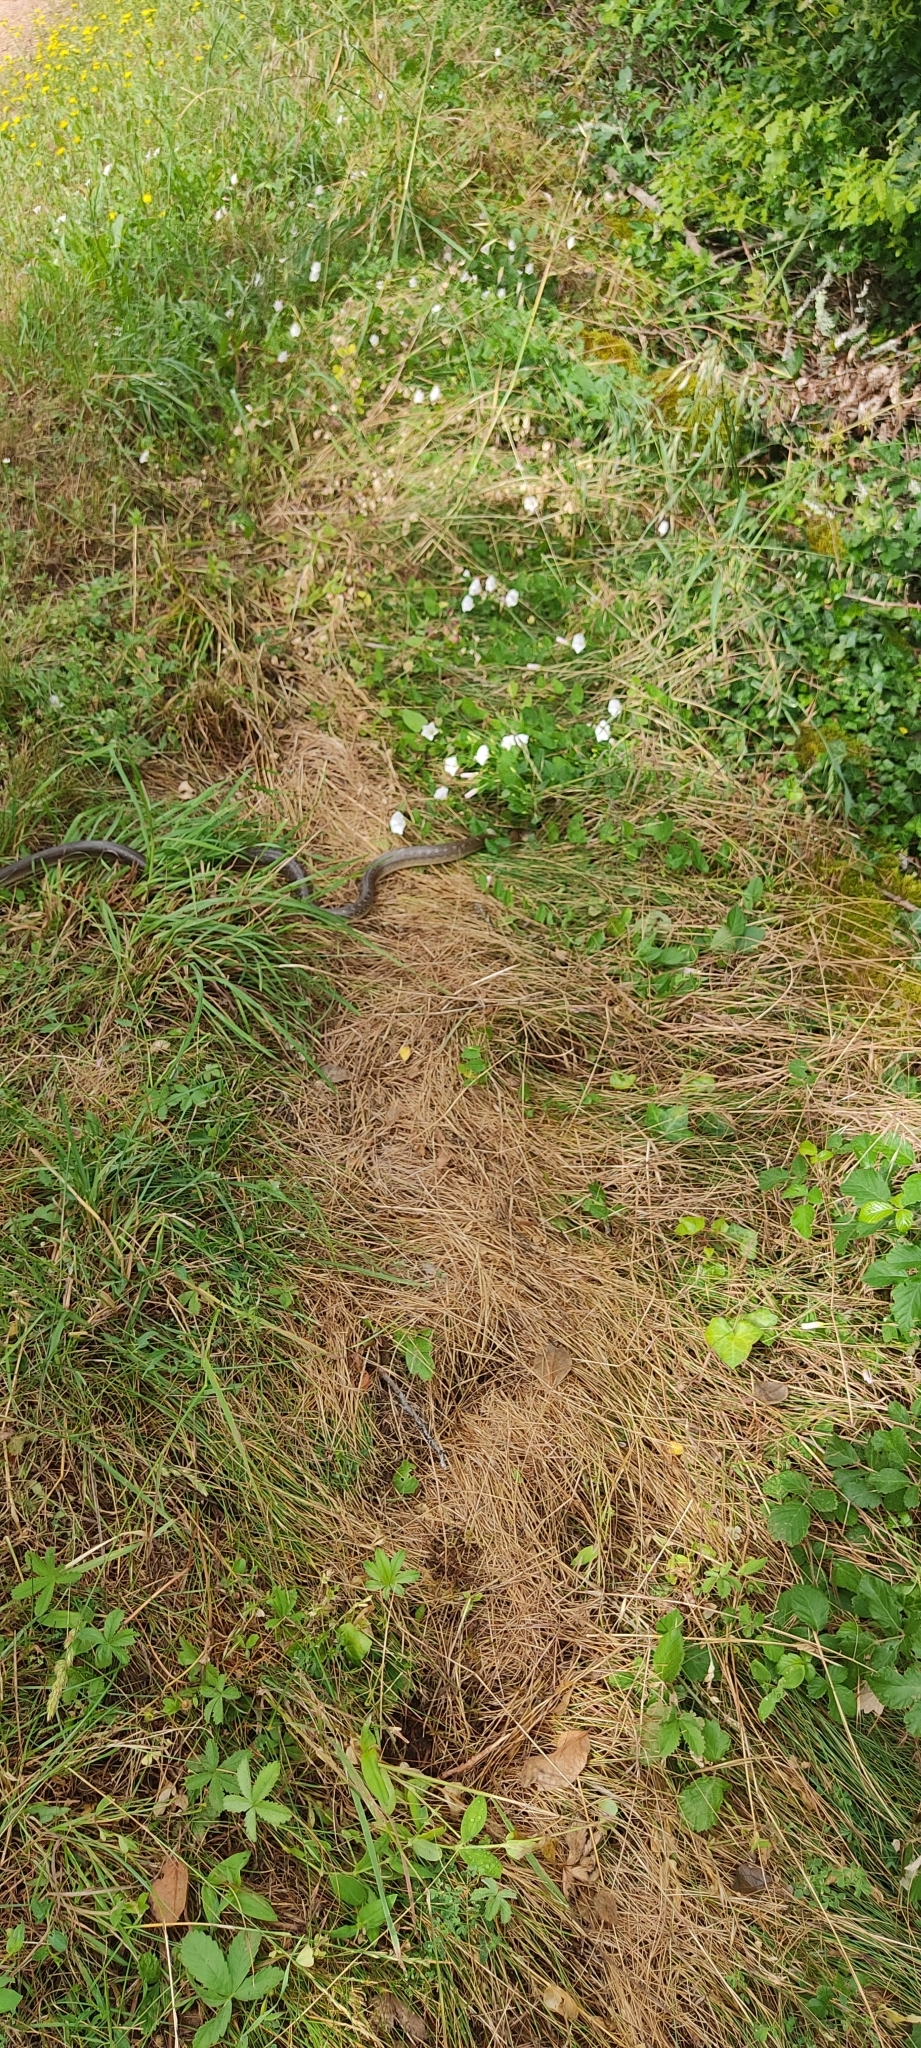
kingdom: Animalia
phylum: Chordata
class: Squamata
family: Colubridae
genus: Zamenis
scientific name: Zamenis longissimus
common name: Aesculapean snake
